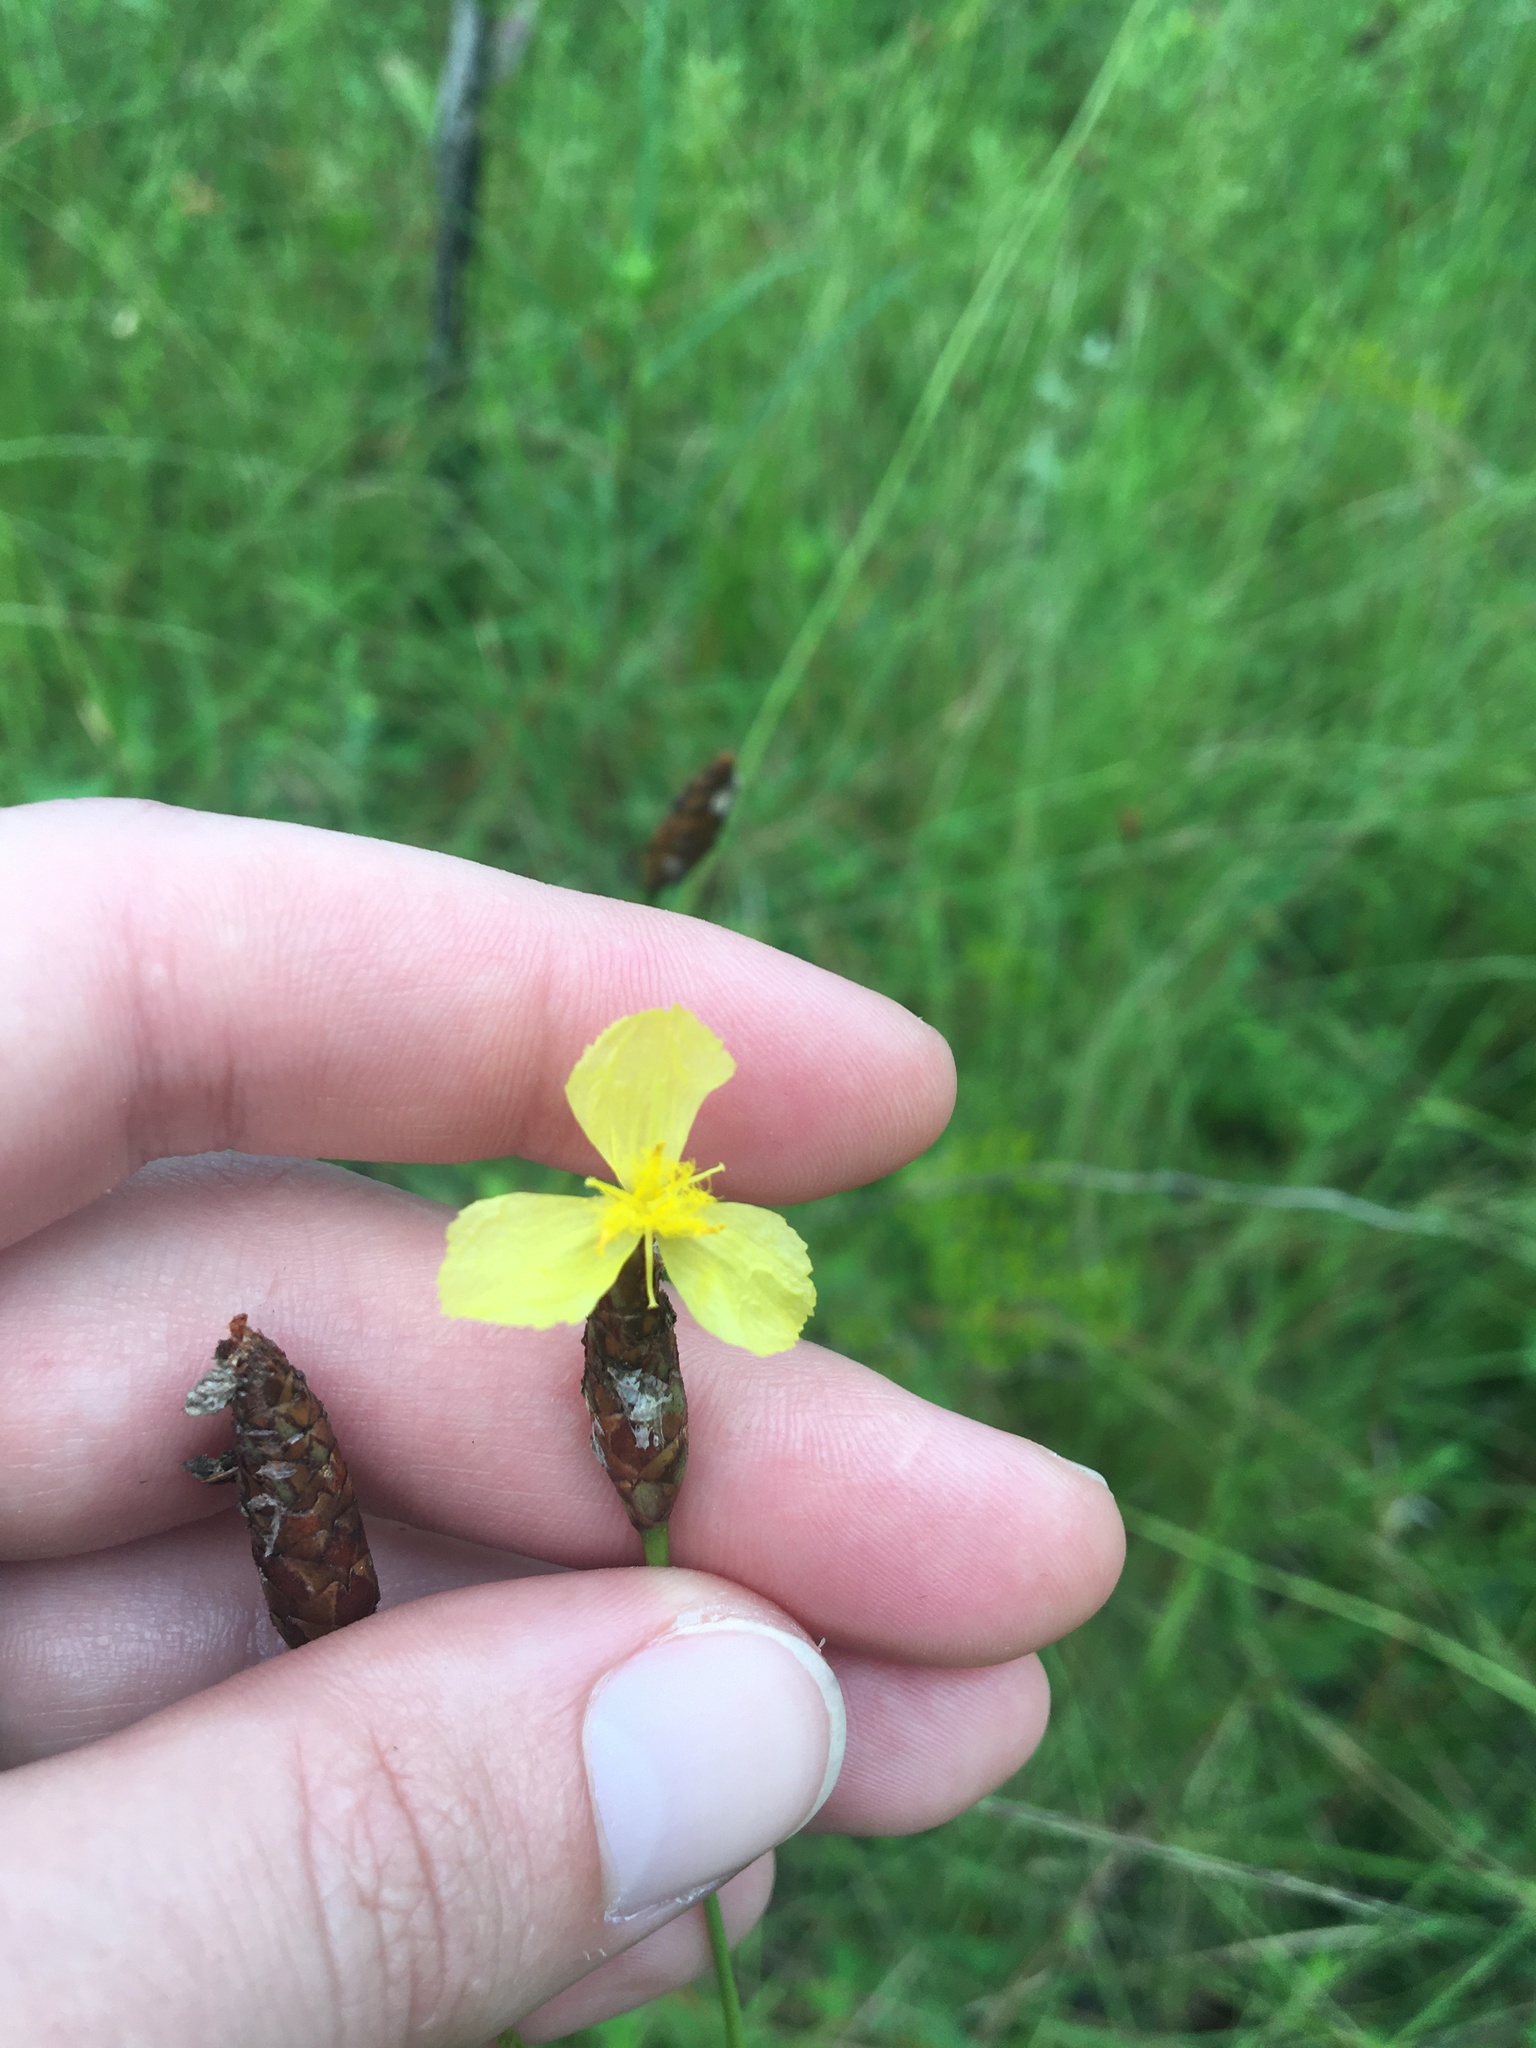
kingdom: Plantae
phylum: Tracheophyta
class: Liliopsida
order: Poales
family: Xyridaceae
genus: Xyris
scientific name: Xyris ambigua
